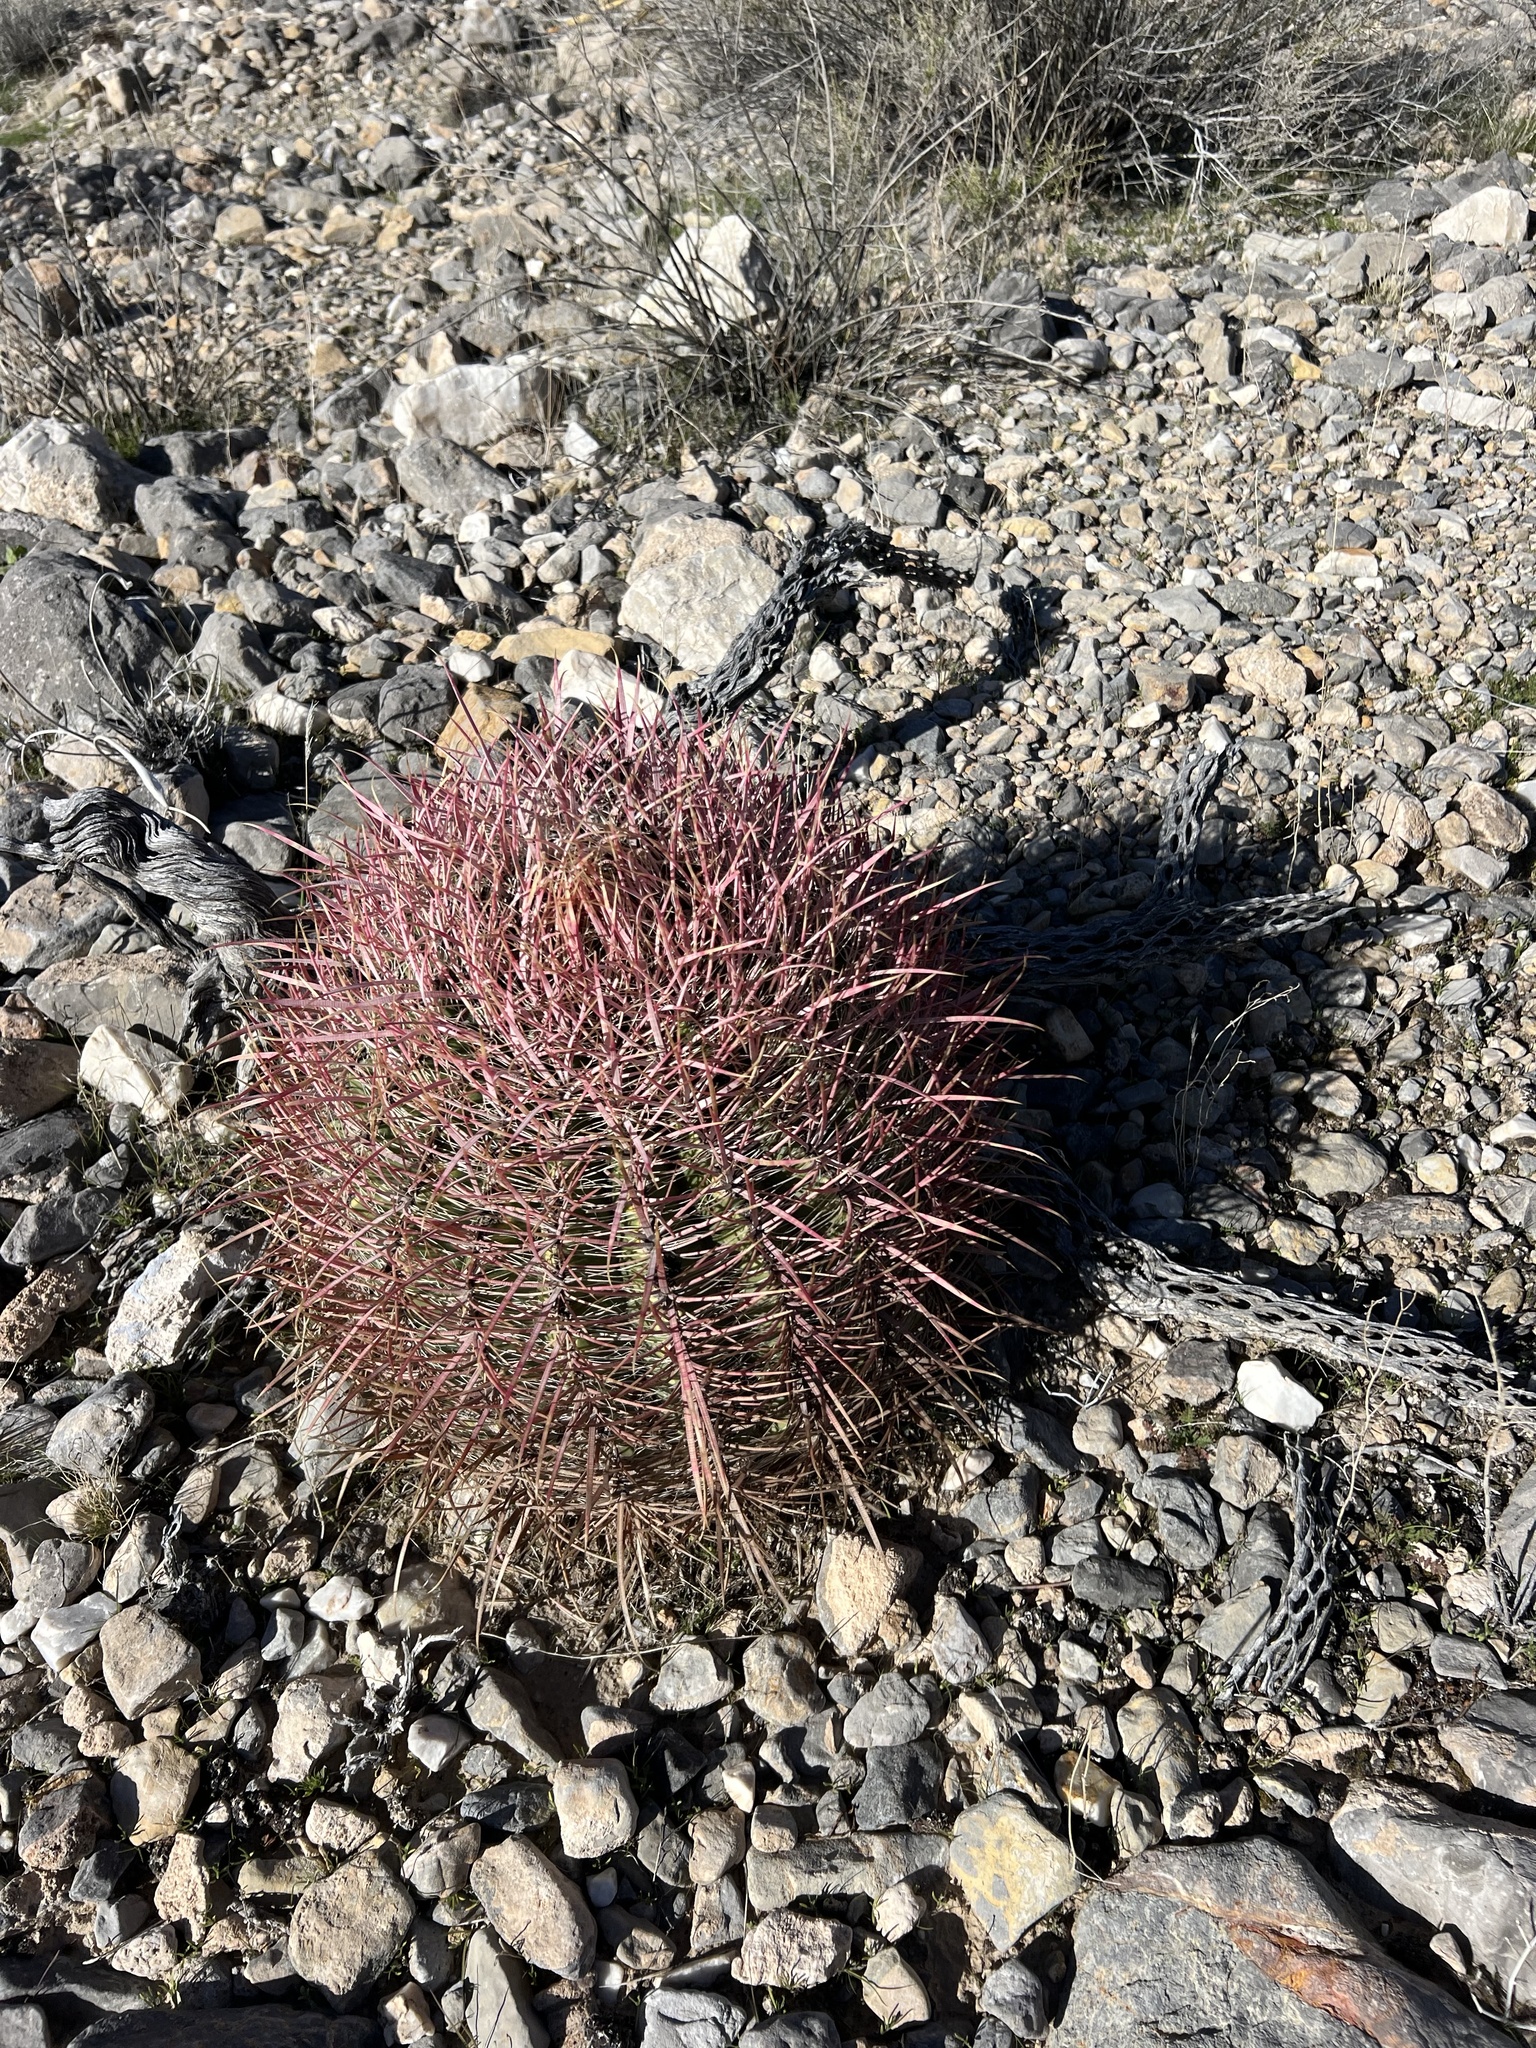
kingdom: Plantae
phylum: Tracheophyta
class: Magnoliopsida
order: Caryophyllales
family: Cactaceae
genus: Ferocactus
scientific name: Ferocactus cylindraceus
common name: California barrel cactus
